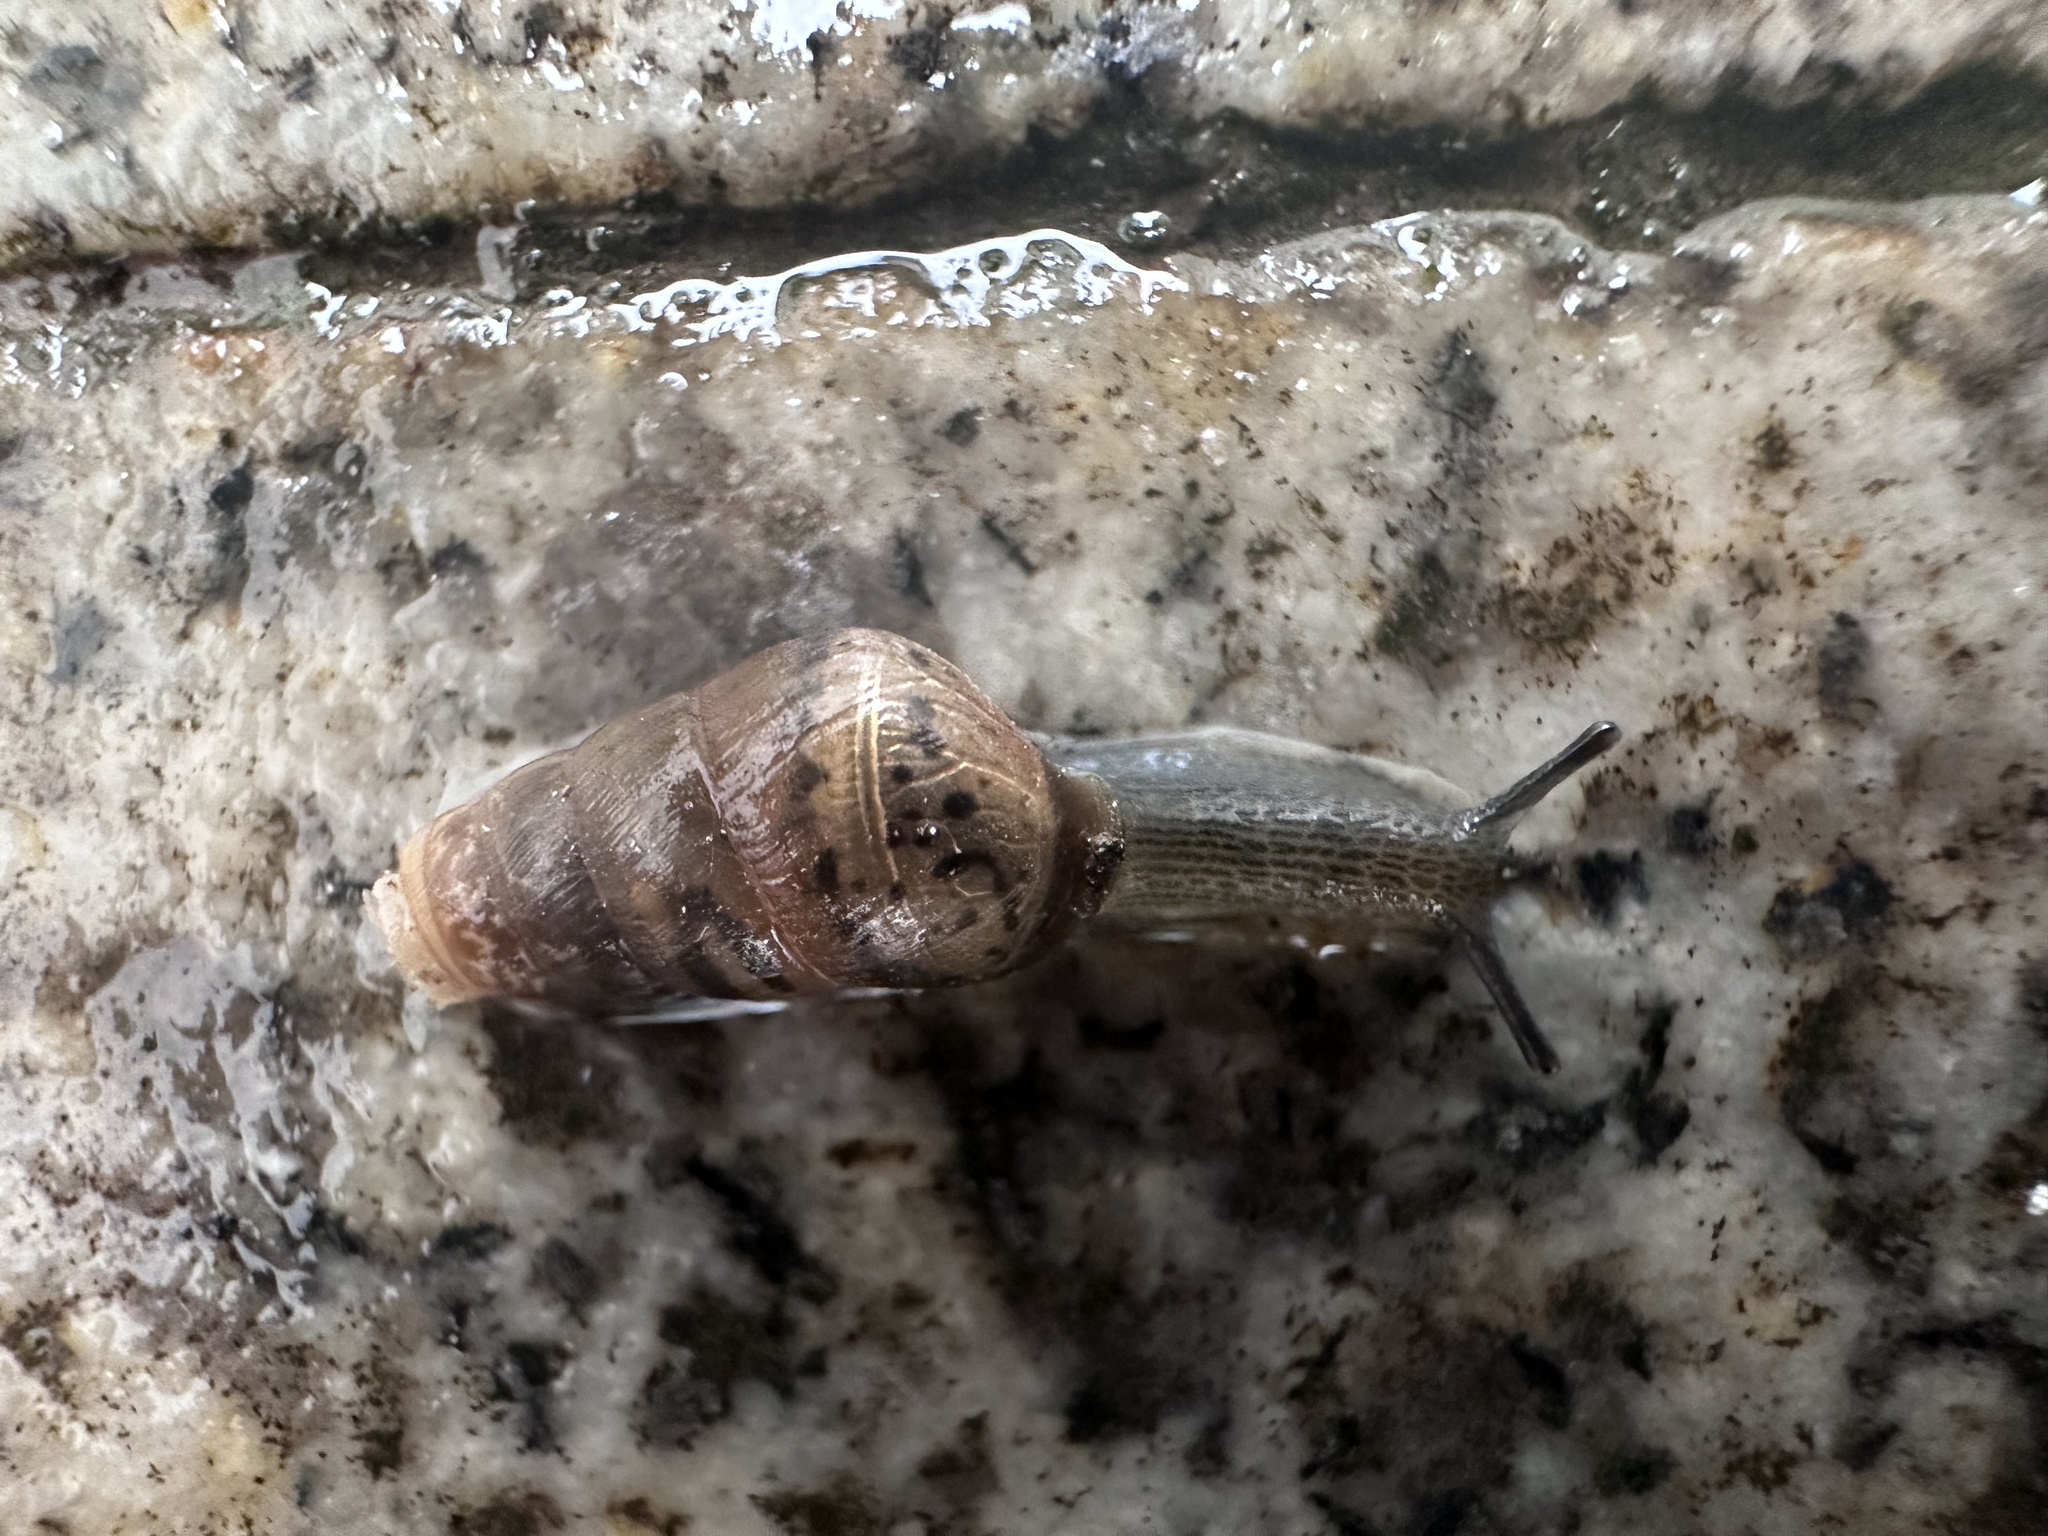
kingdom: Animalia
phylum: Mollusca
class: Gastropoda
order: Stylommatophora
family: Achatinidae
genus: Rumina
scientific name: Rumina decollata
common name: Decollate snail
